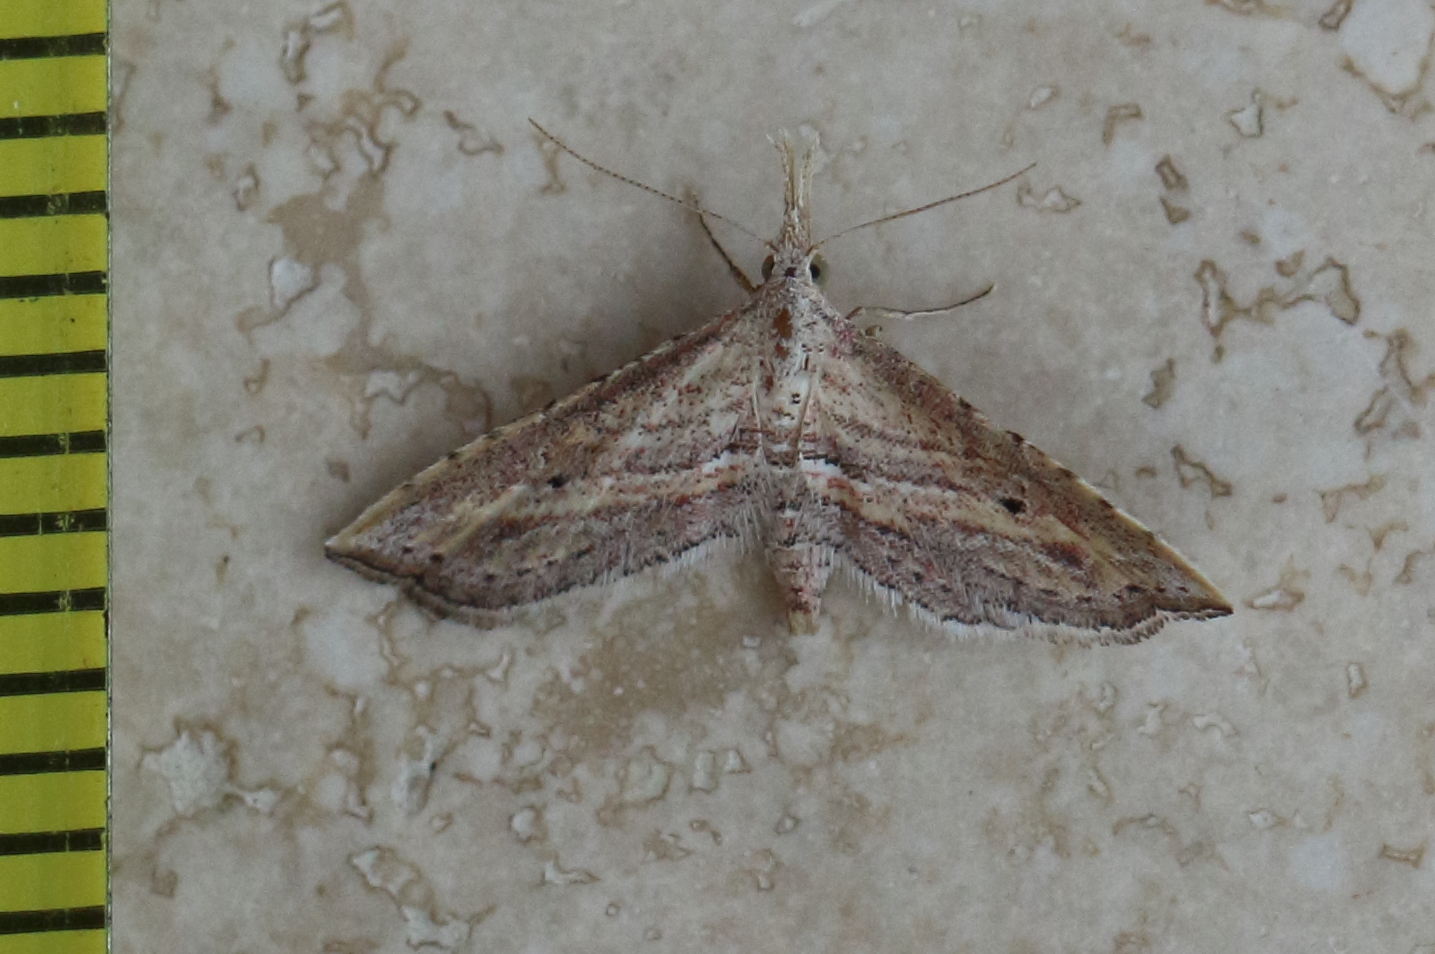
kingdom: Animalia
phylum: Arthropoda
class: Insecta
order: Lepidoptera
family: Erebidae
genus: Stenopaltis
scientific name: Stenopaltis lithina
